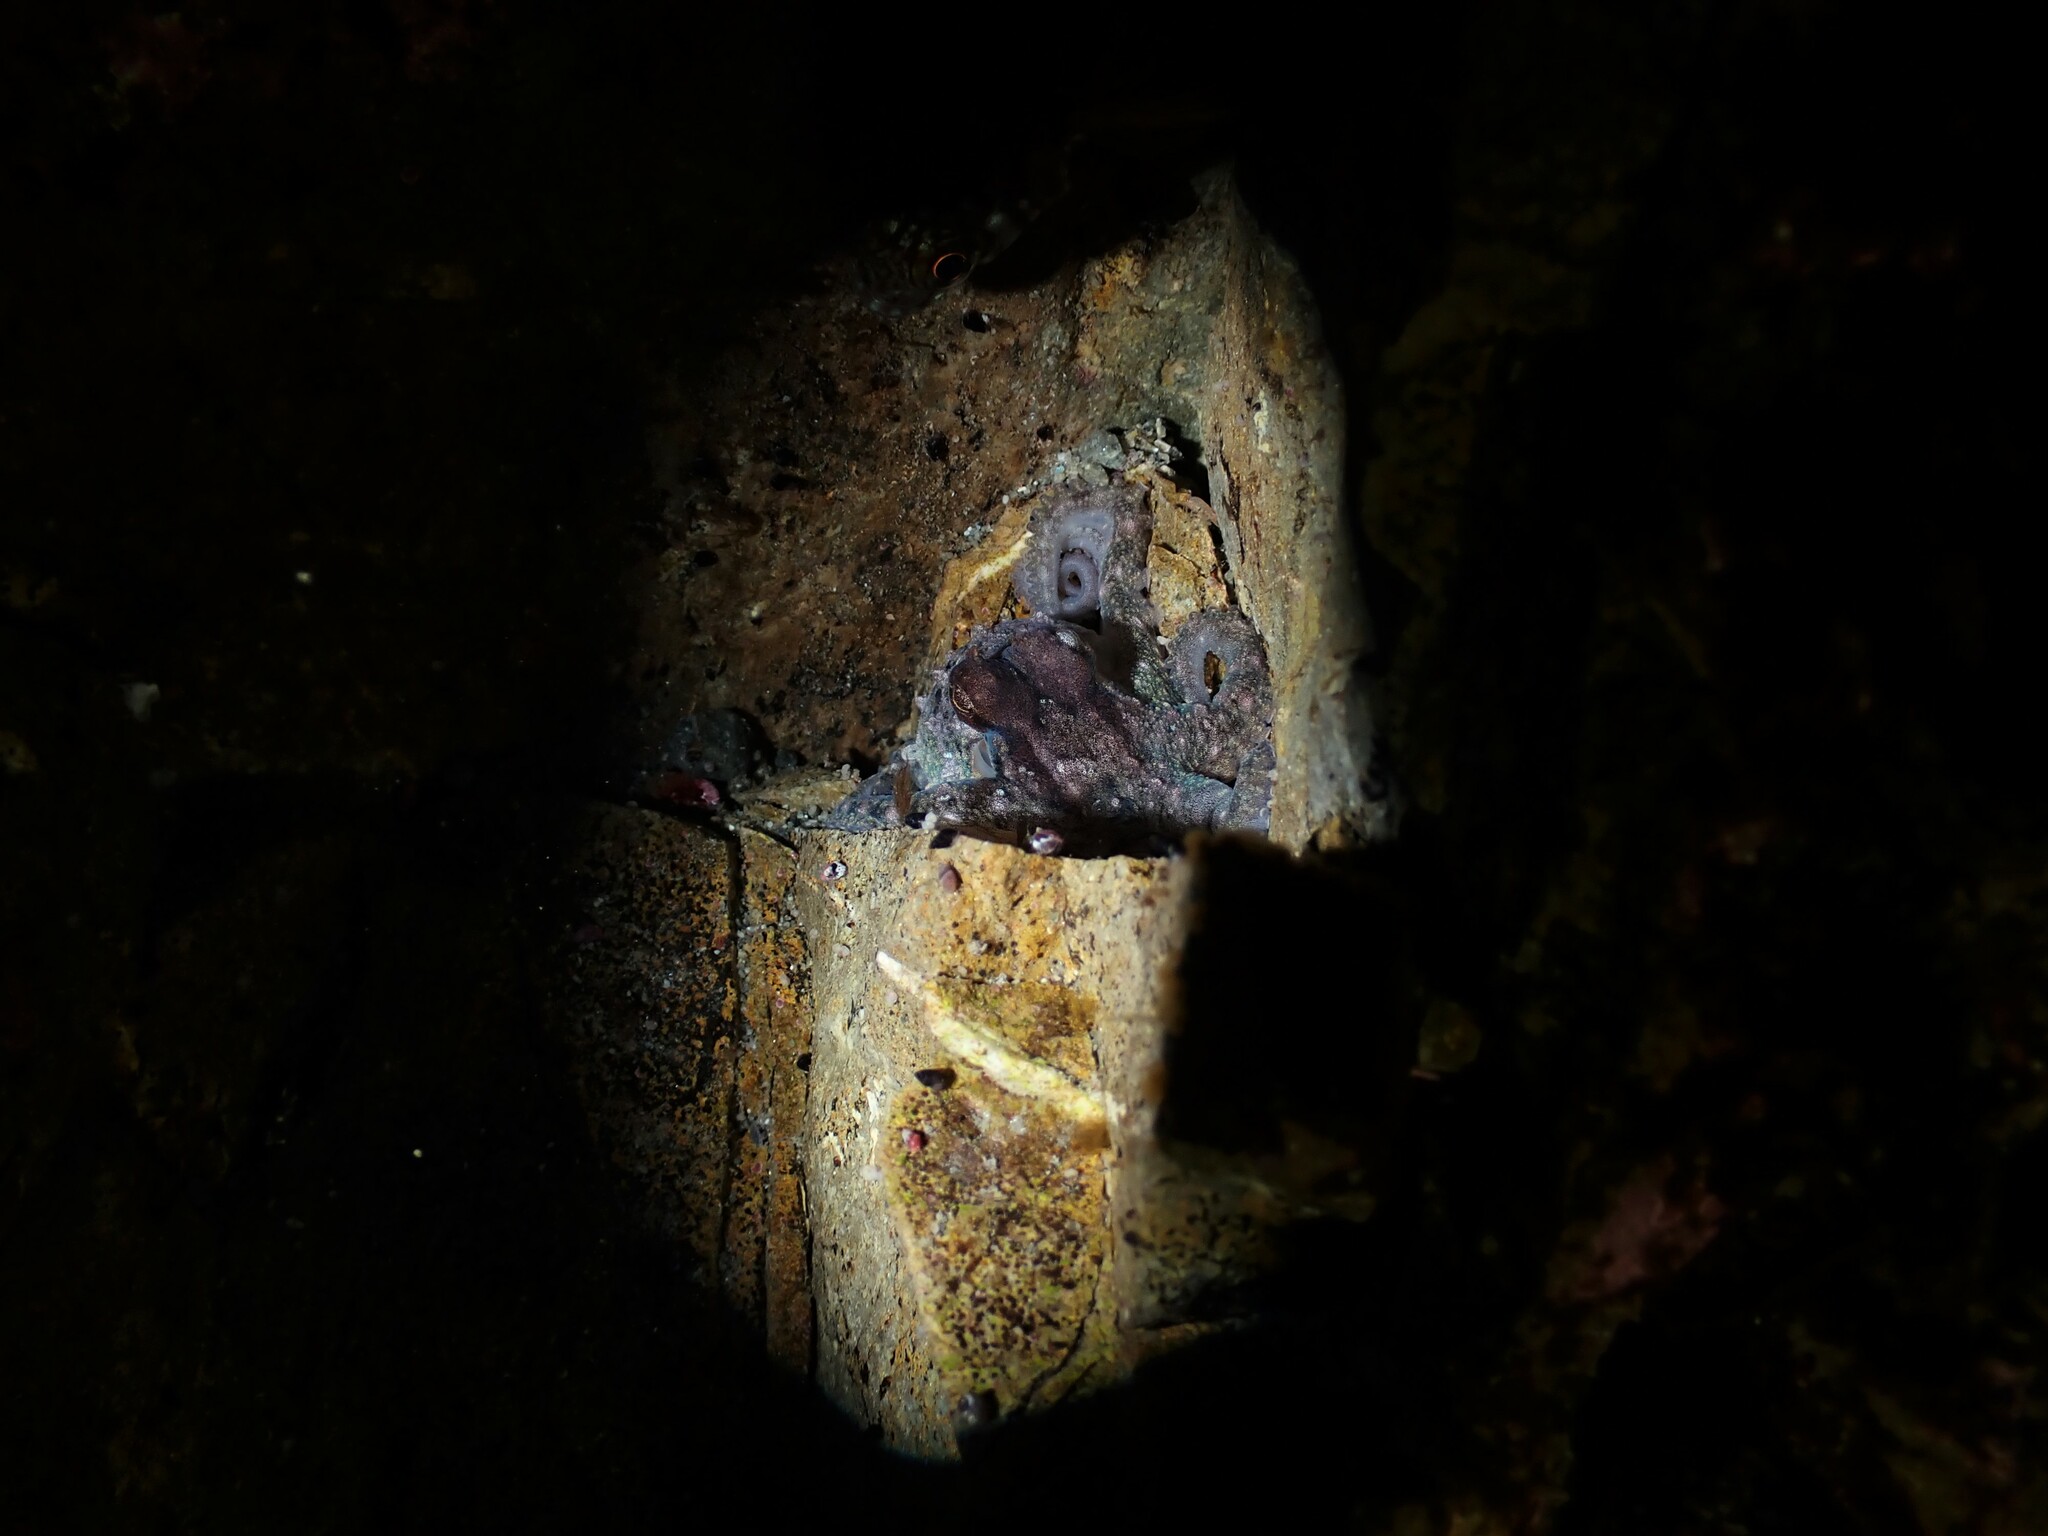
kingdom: Animalia
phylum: Mollusca
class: Cephalopoda
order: Octopoda
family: Octopodidae
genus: Macroctopus
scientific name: Macroctopus maorum
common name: Maori octopus
